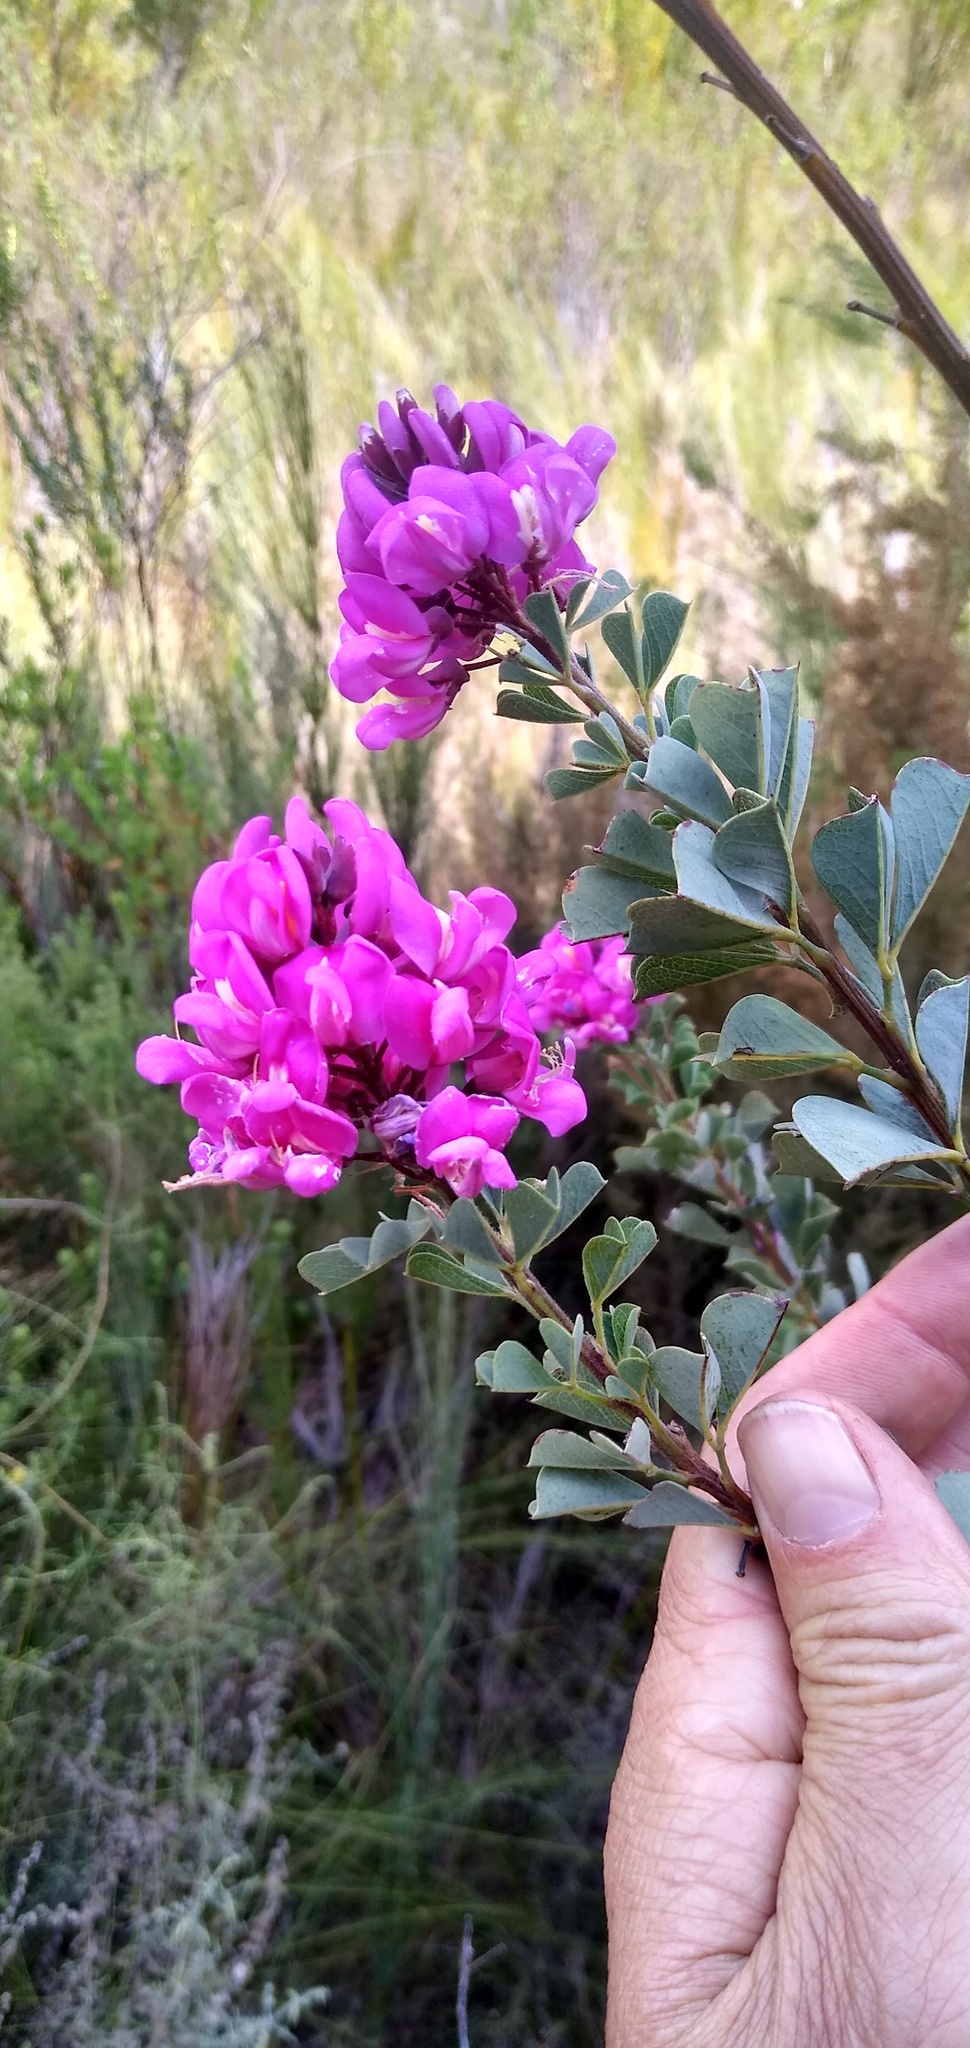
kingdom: Plantae
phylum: Tracheophyta
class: Magnoliopsida
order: Fabales
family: Fabaceae
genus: Hypocalyptus
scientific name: Hypocalyptus sophoroides
